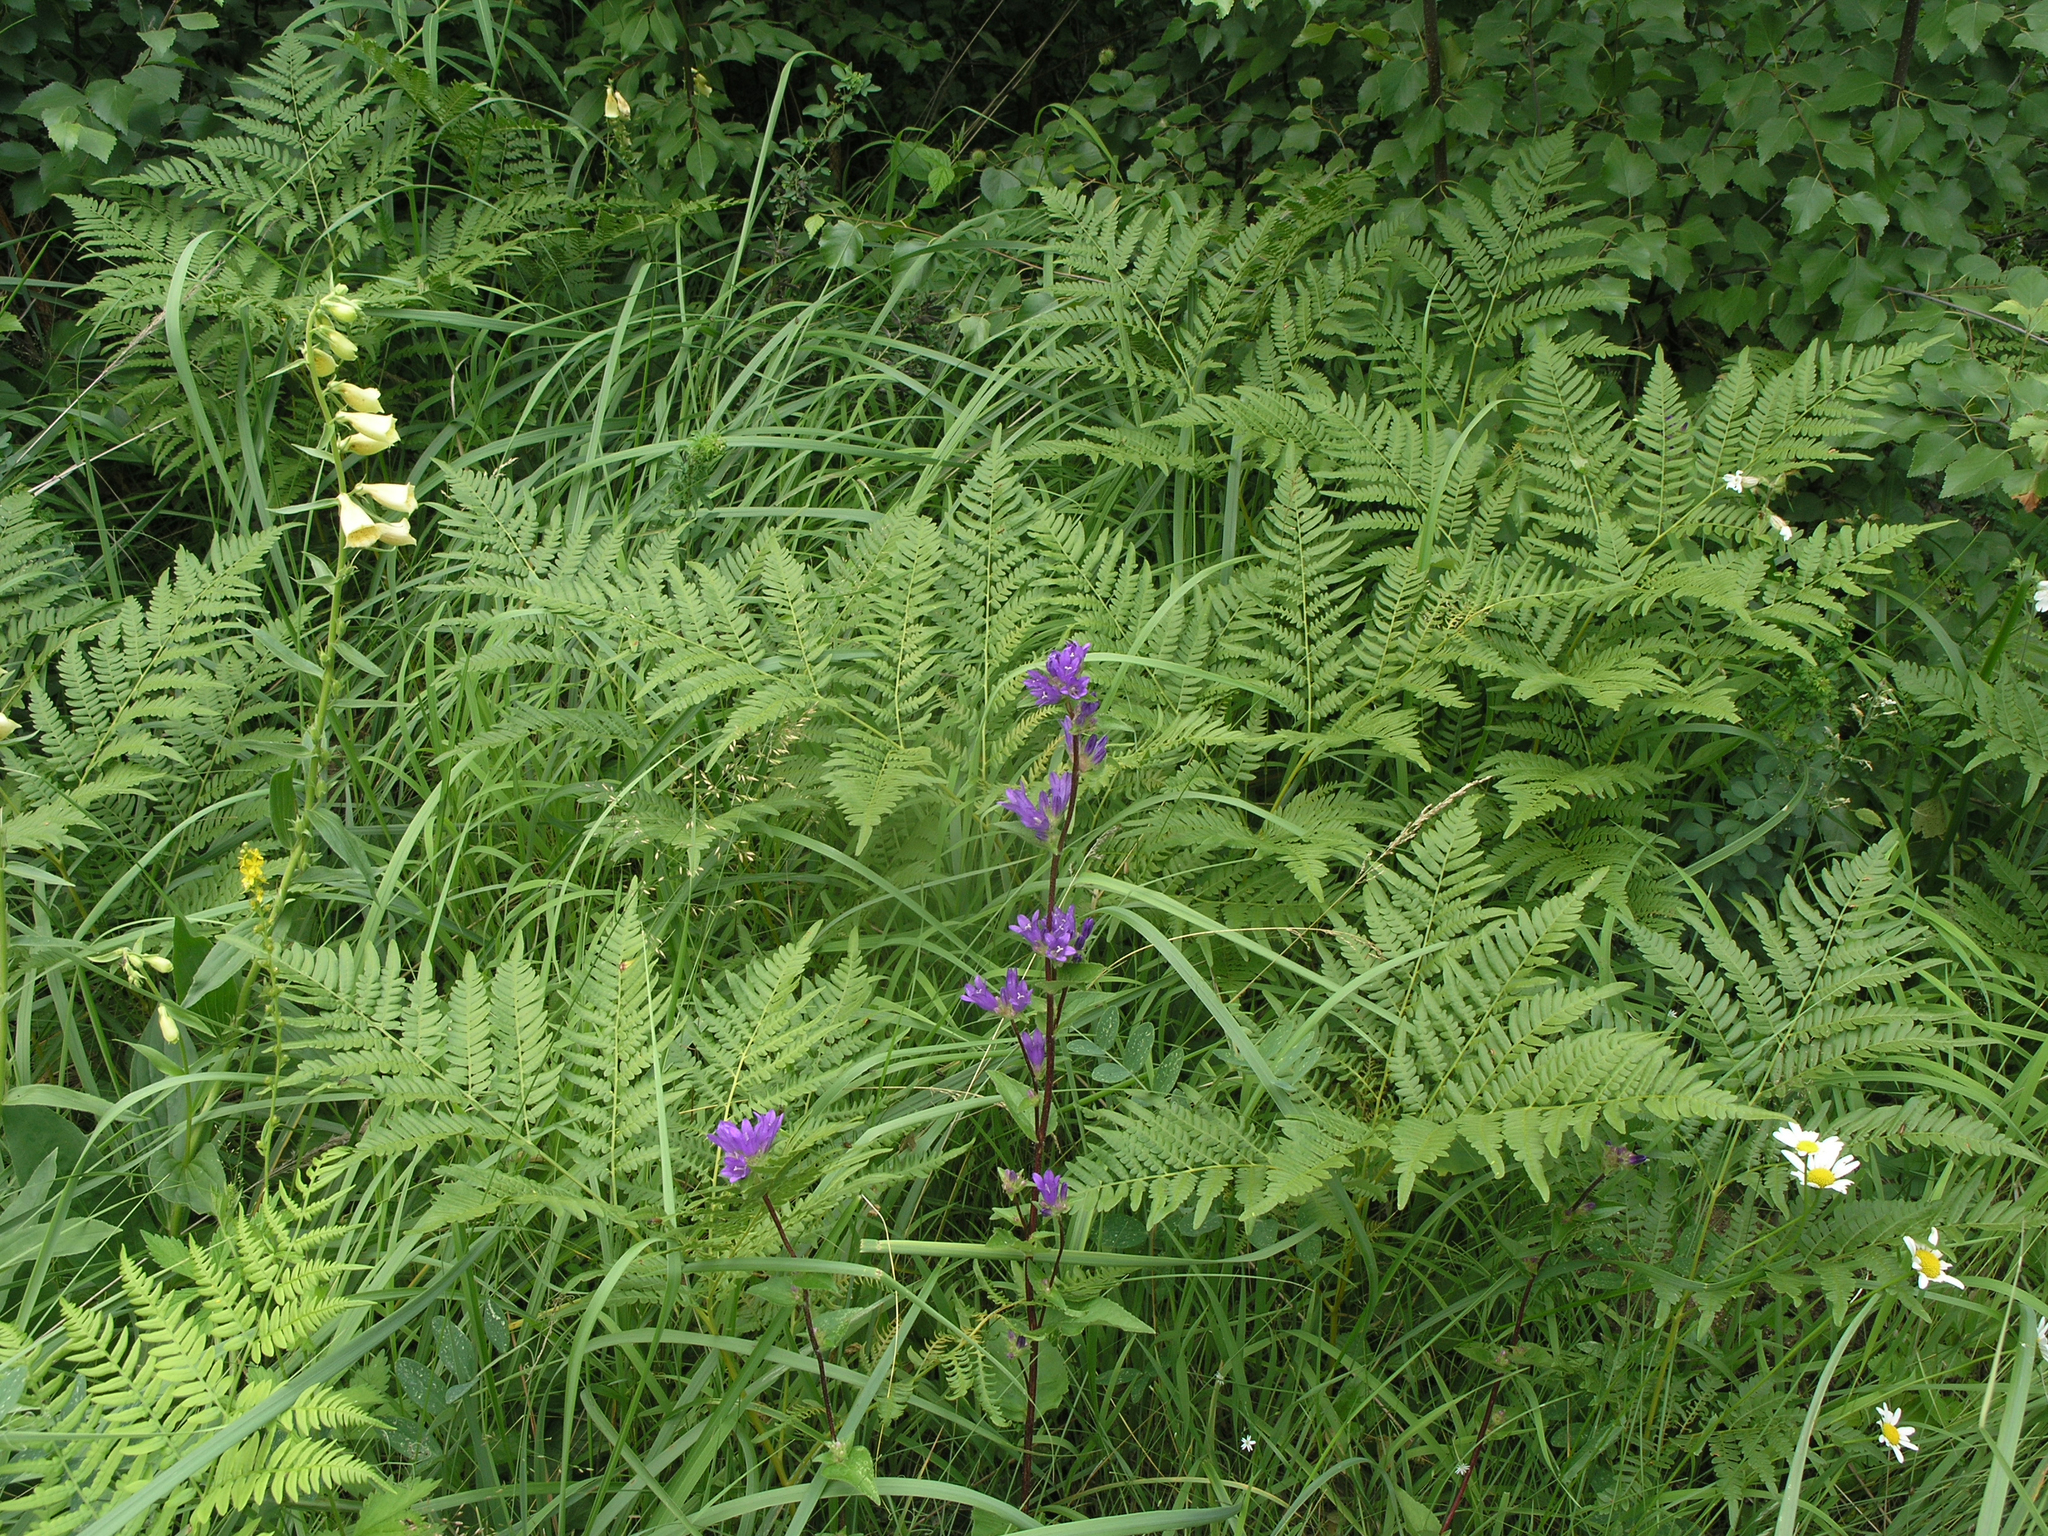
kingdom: Plantae
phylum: Tracheophyta
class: Magnoliopsida
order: Lamiales
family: Plantaginaceae
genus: Digitalis
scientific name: Digitalis grandiflora
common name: Yellow foxglove
